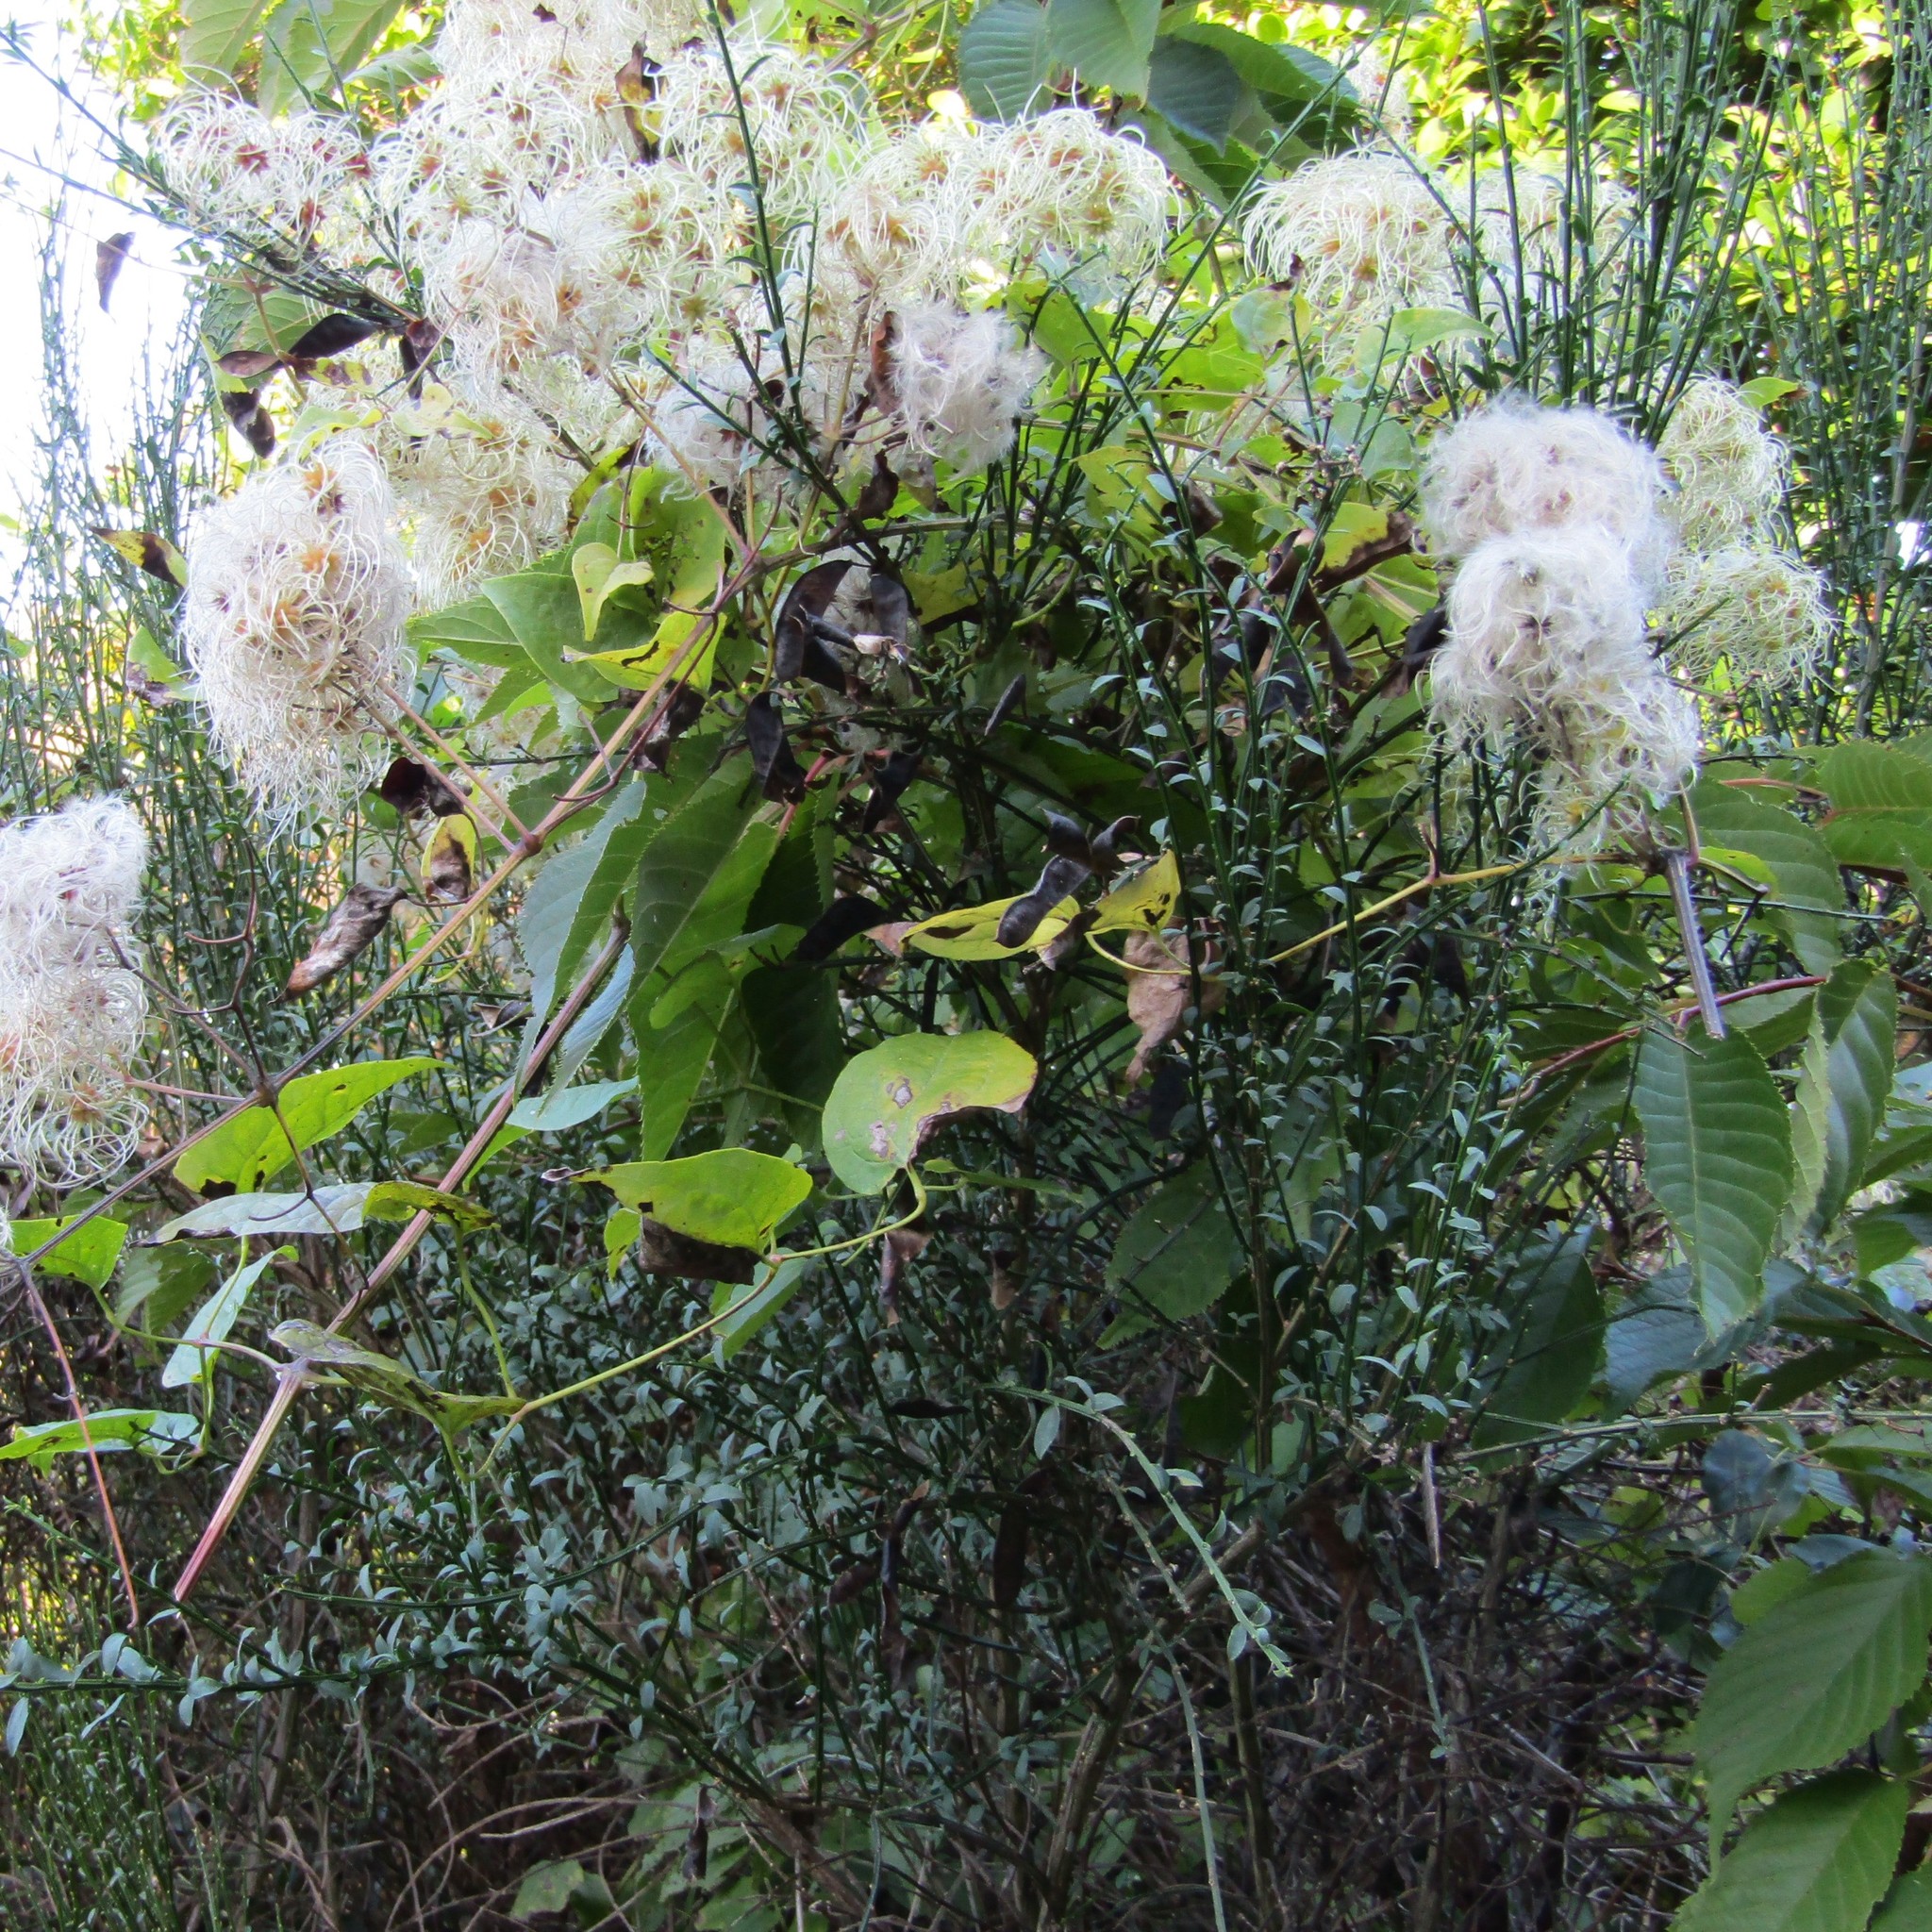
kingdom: Plantae
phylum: Tracheophyta
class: Magnoliopsida
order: Fabales
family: Fabaceae
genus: Cytisus
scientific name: Cytisus scoparius
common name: Scotch broom
